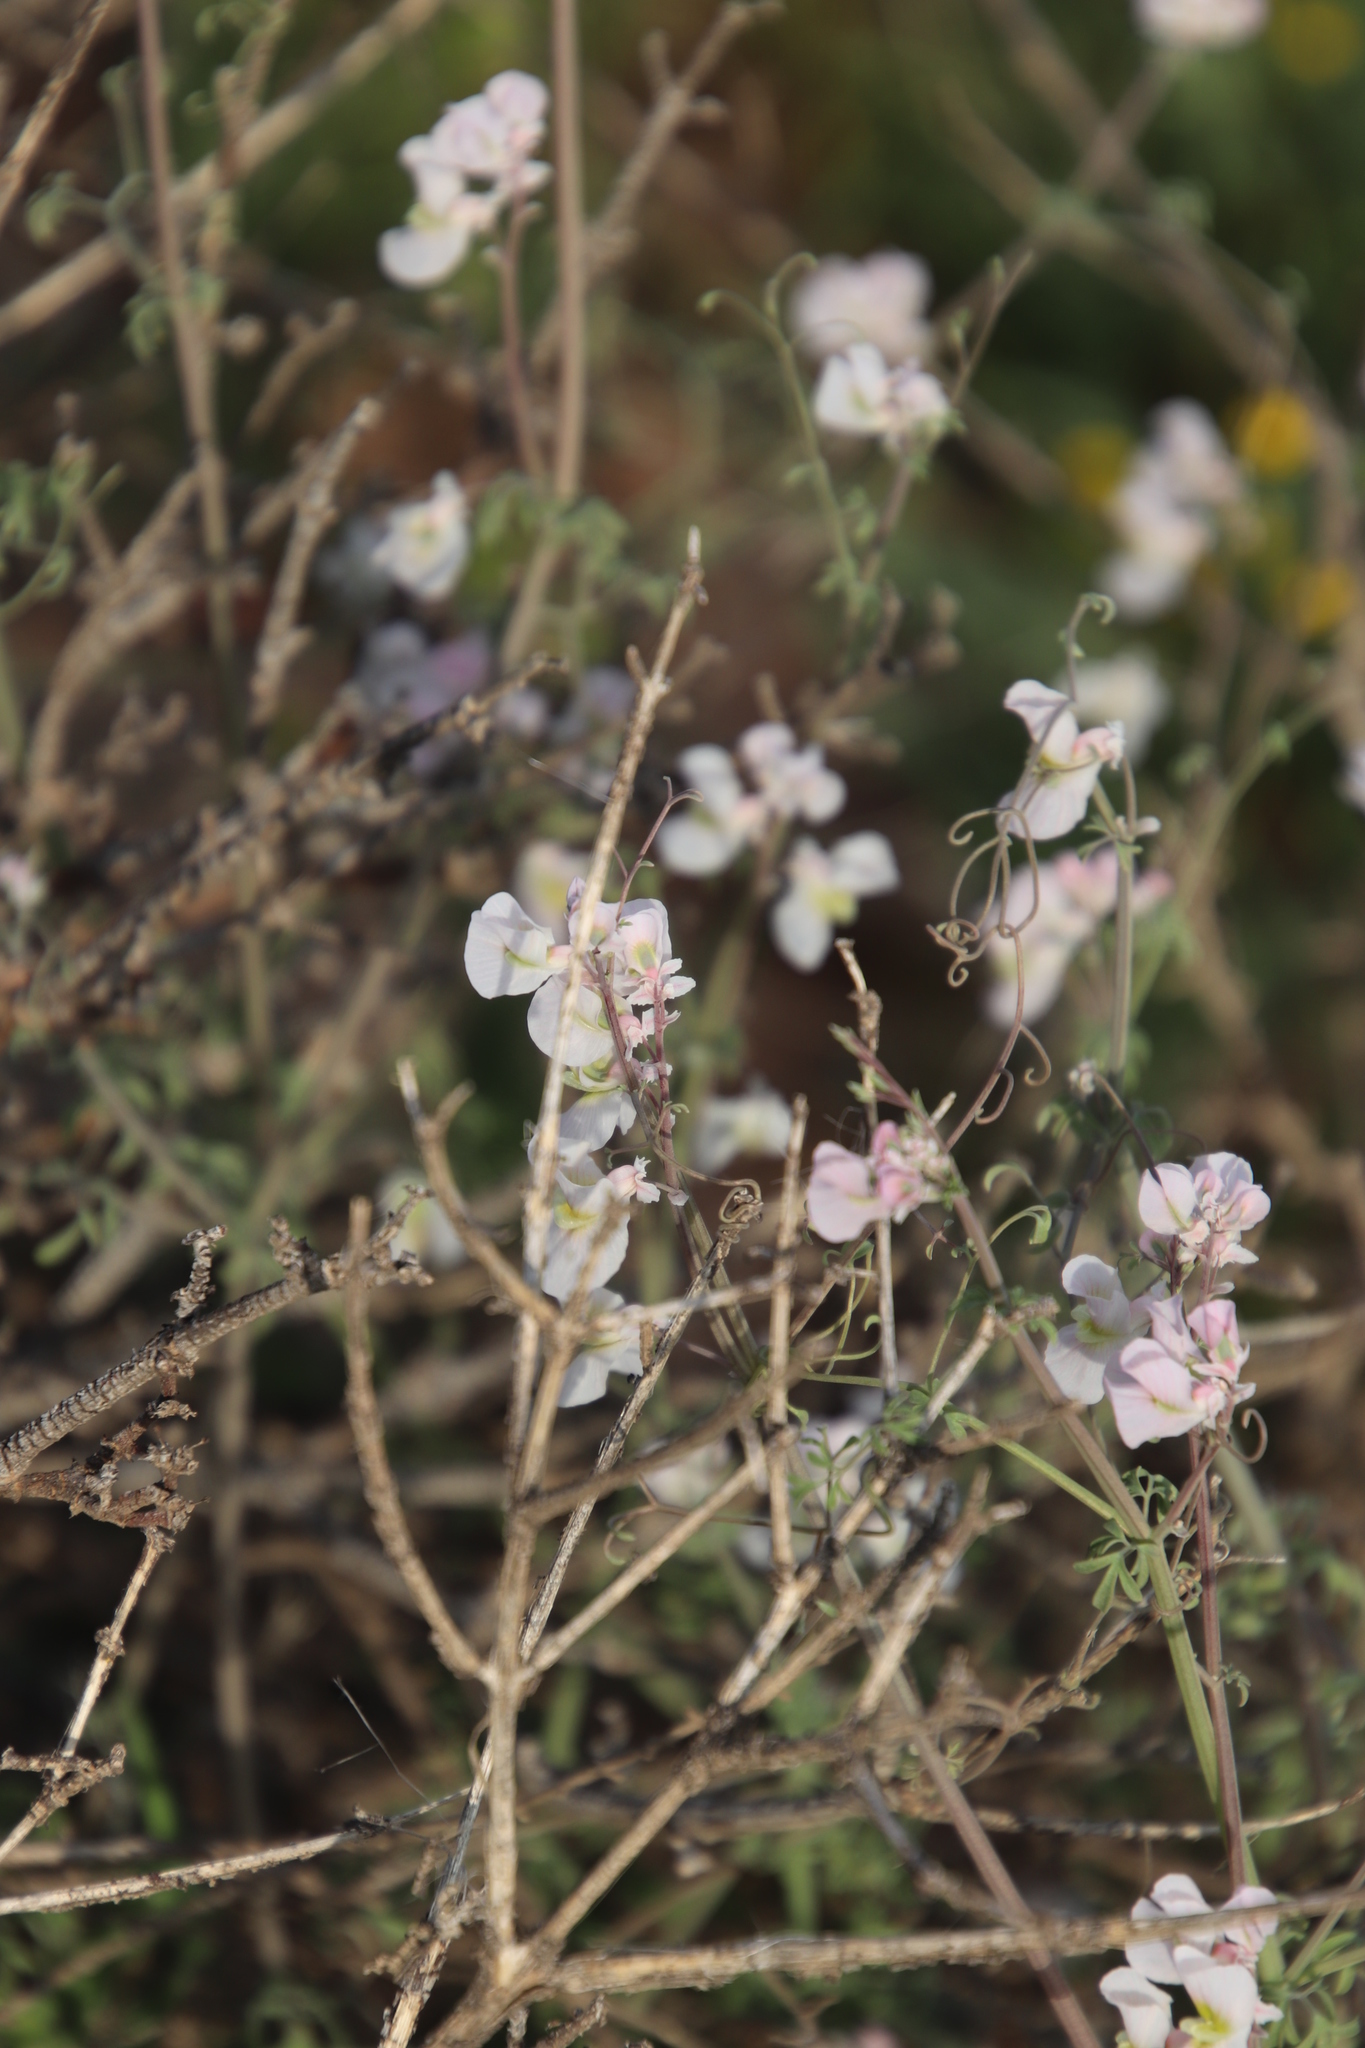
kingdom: Plantae
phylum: Tracheophyta
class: Magnoliopsida
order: Ranunculales
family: Papaveraceae
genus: Cysticapnos
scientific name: Cysticapnos vesicaria
